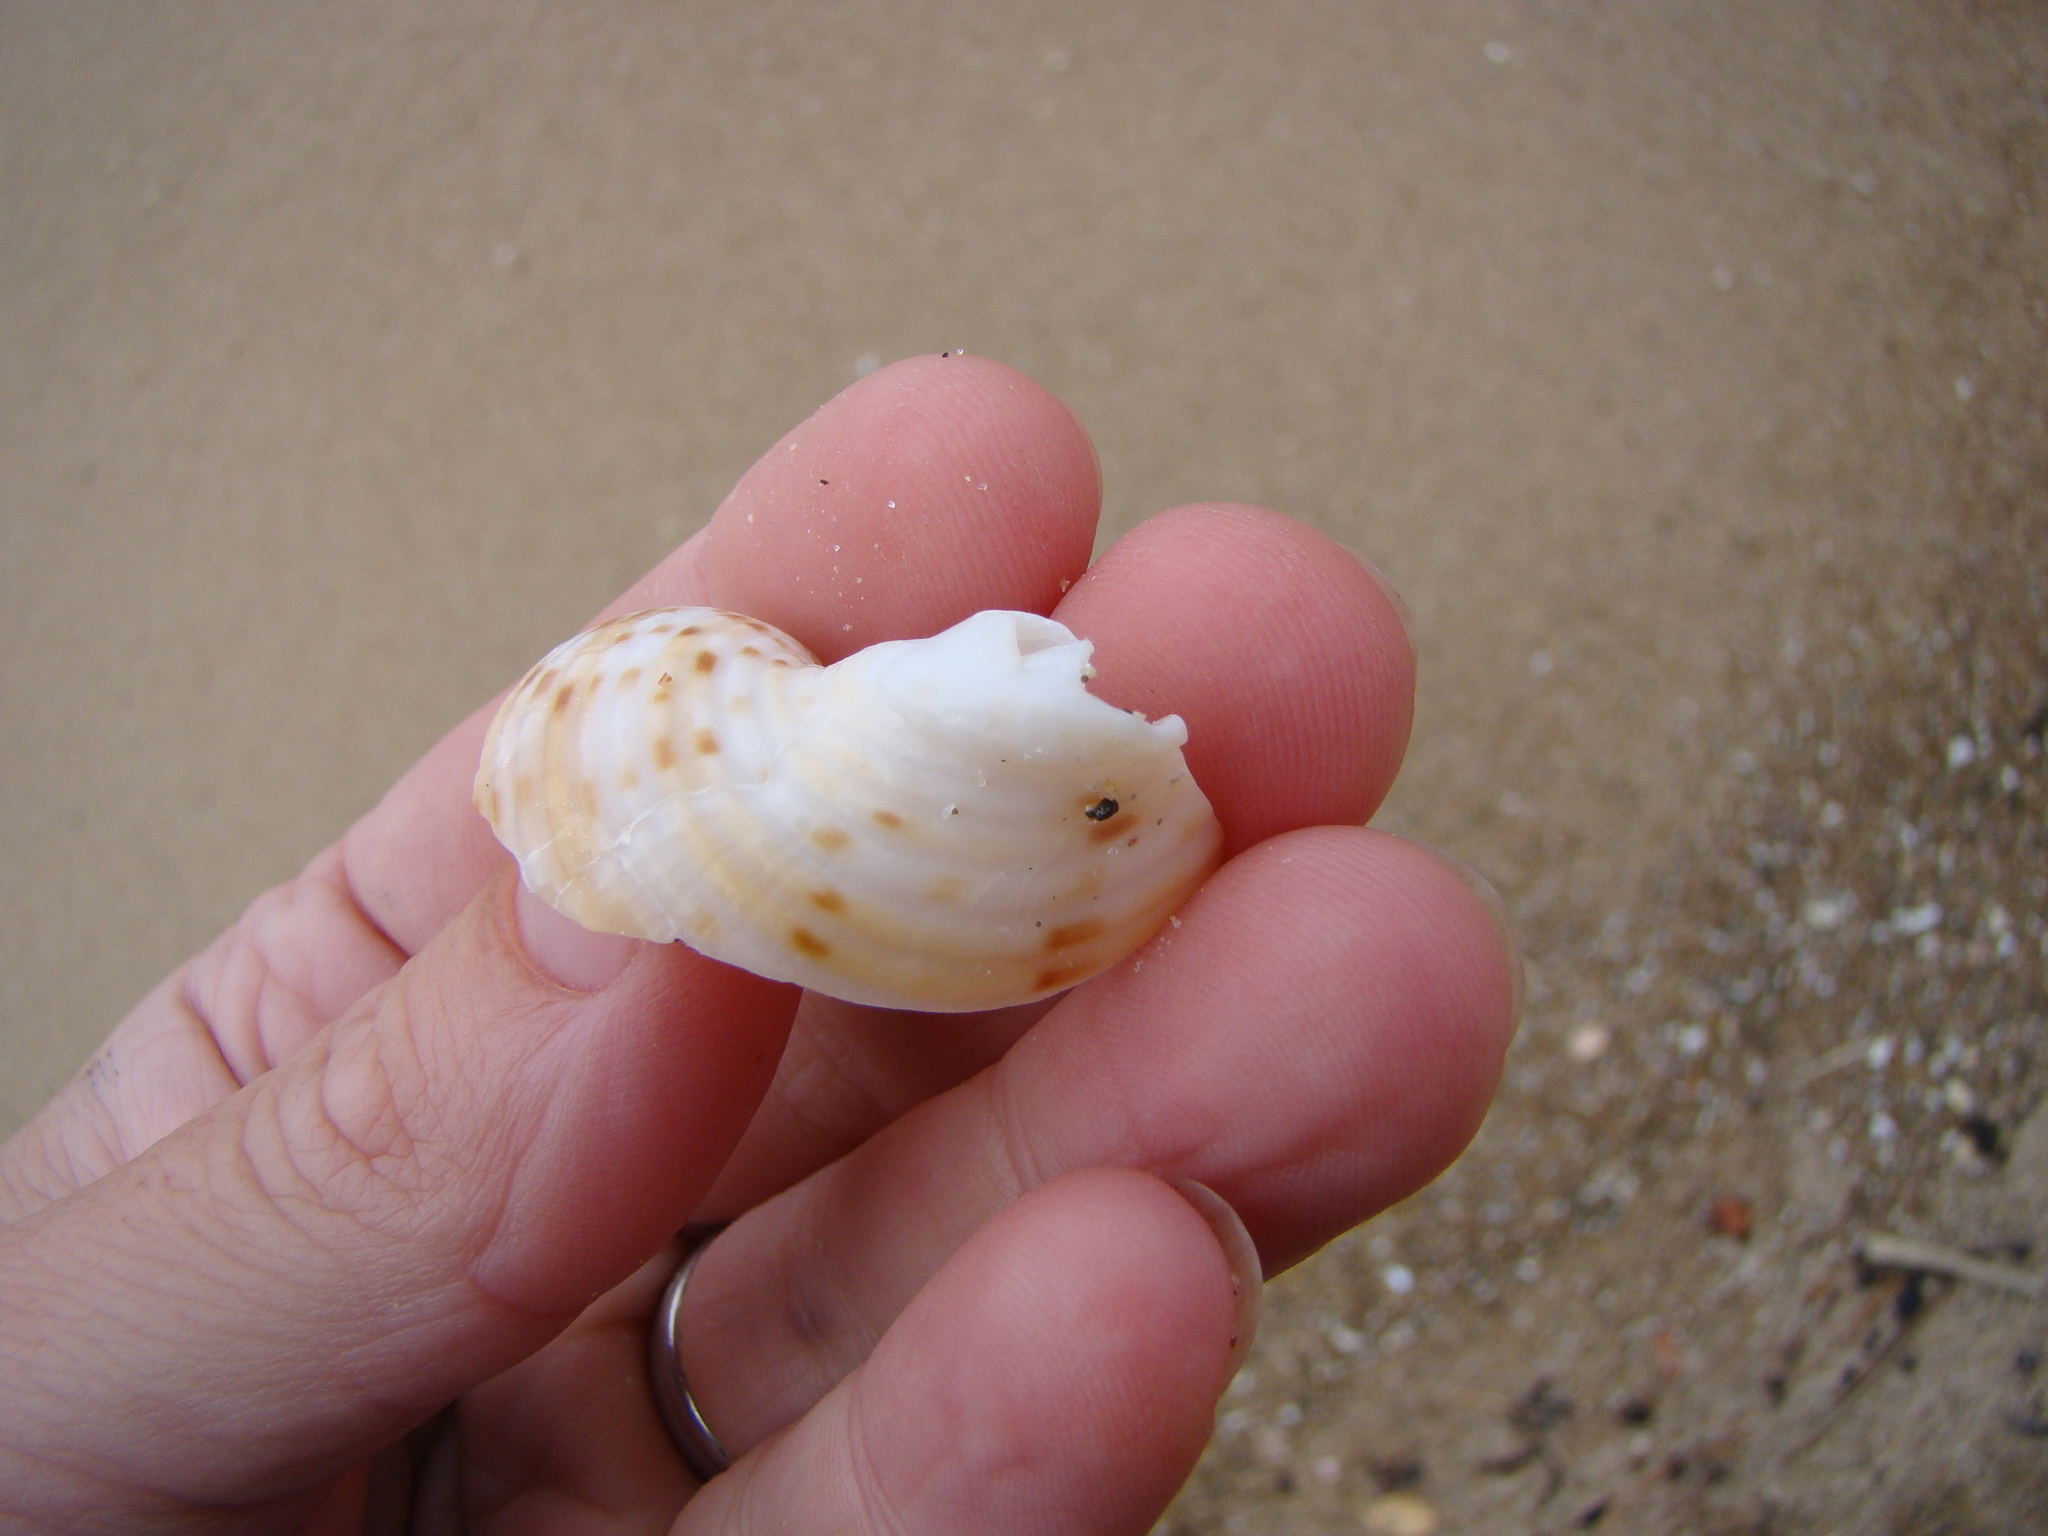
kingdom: Animalia
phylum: Mollusca
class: Gastropoda
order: Littorinimorpha
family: Tonnidae
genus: Tonna
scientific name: Tonna tankervillii
